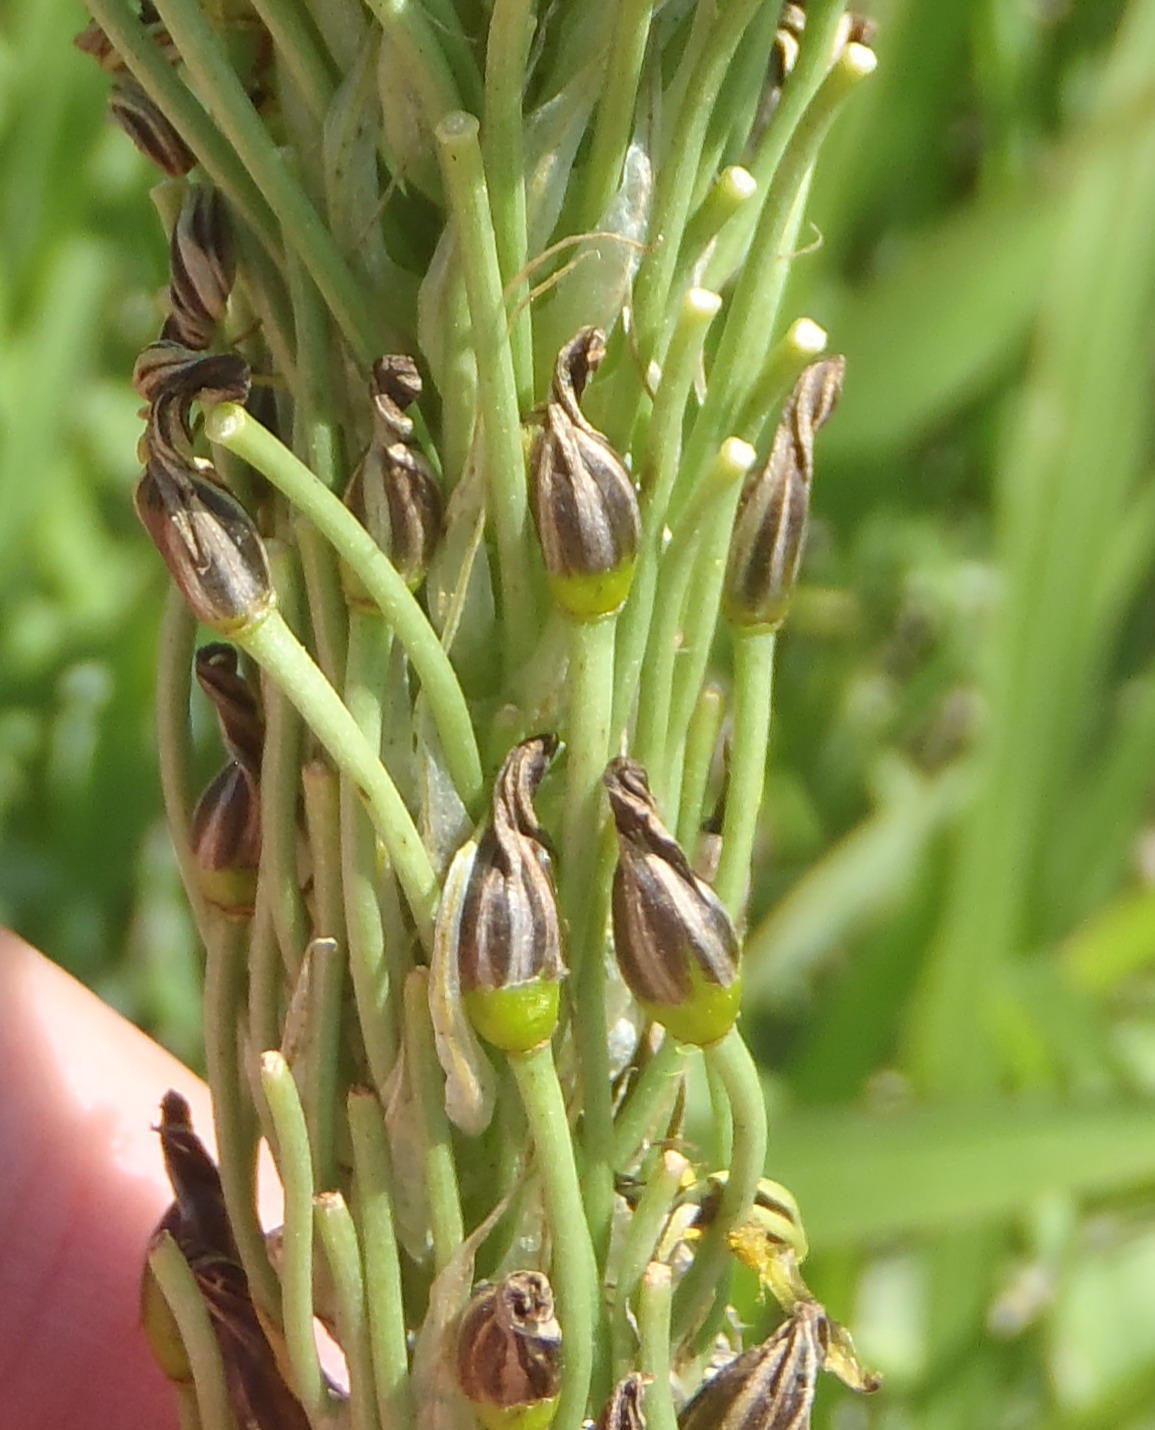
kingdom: Plantae
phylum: Tracheophyta
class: Liliopsida
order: Asparagales
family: Asphodelaceae
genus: Bulbine
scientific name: Bulbine narcissifolia
